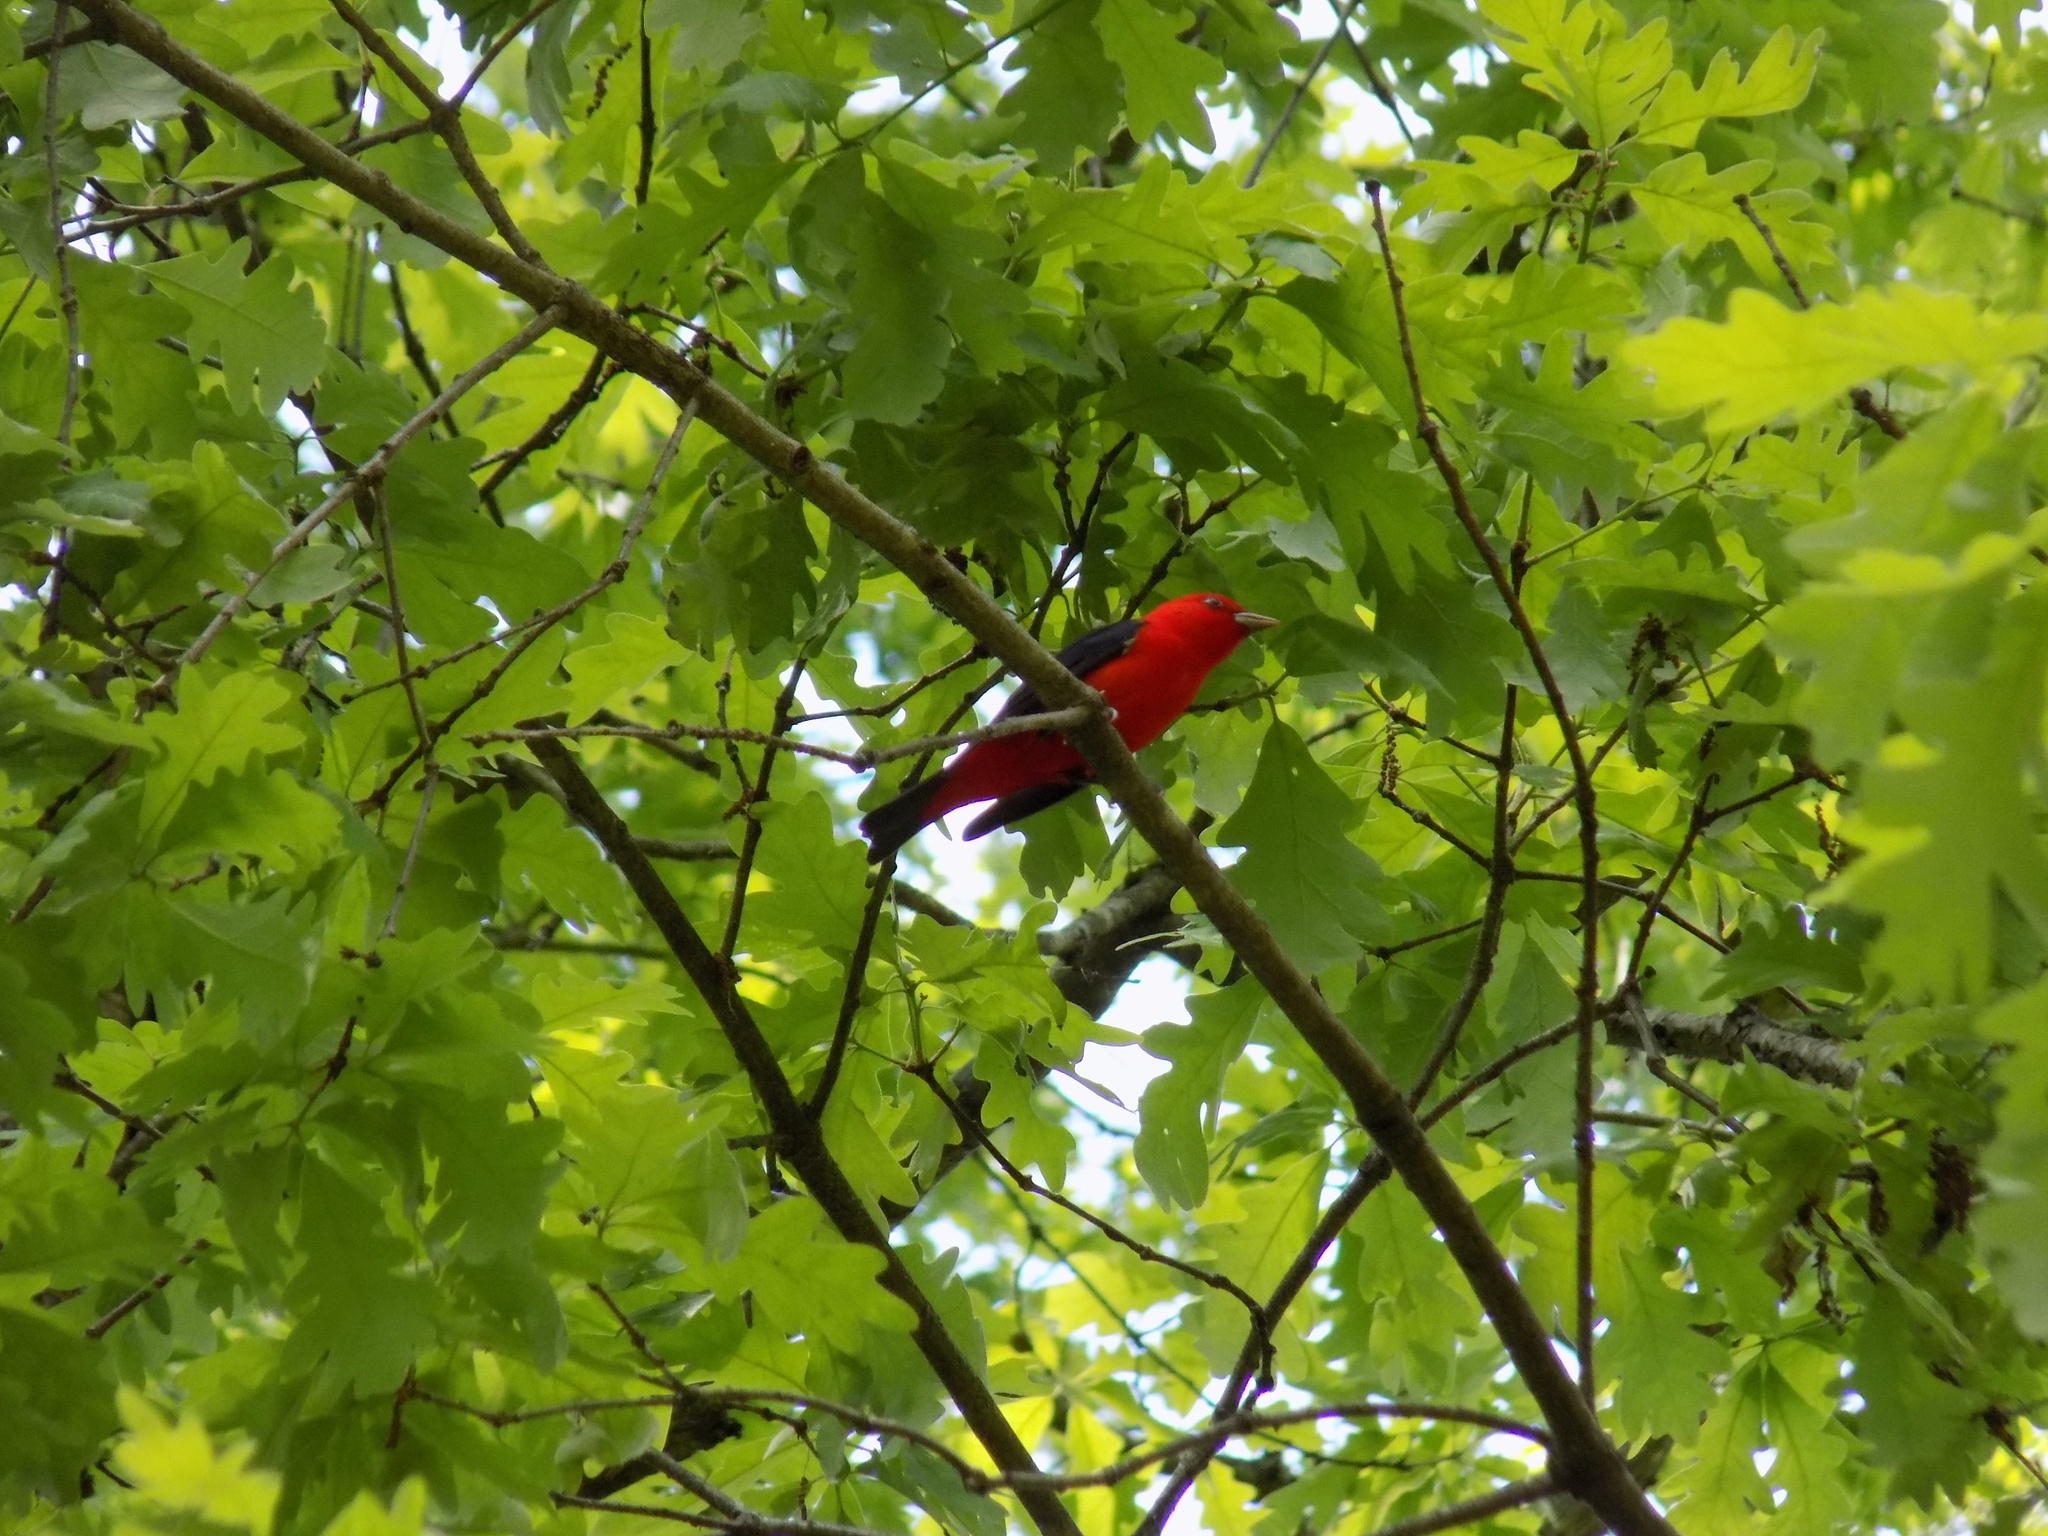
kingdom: Animalia
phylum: Chordata
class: Aves
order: Passeriformes
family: Cardinalidae
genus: Piranga
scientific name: Piranga olivacea
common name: Scarlet tanager
